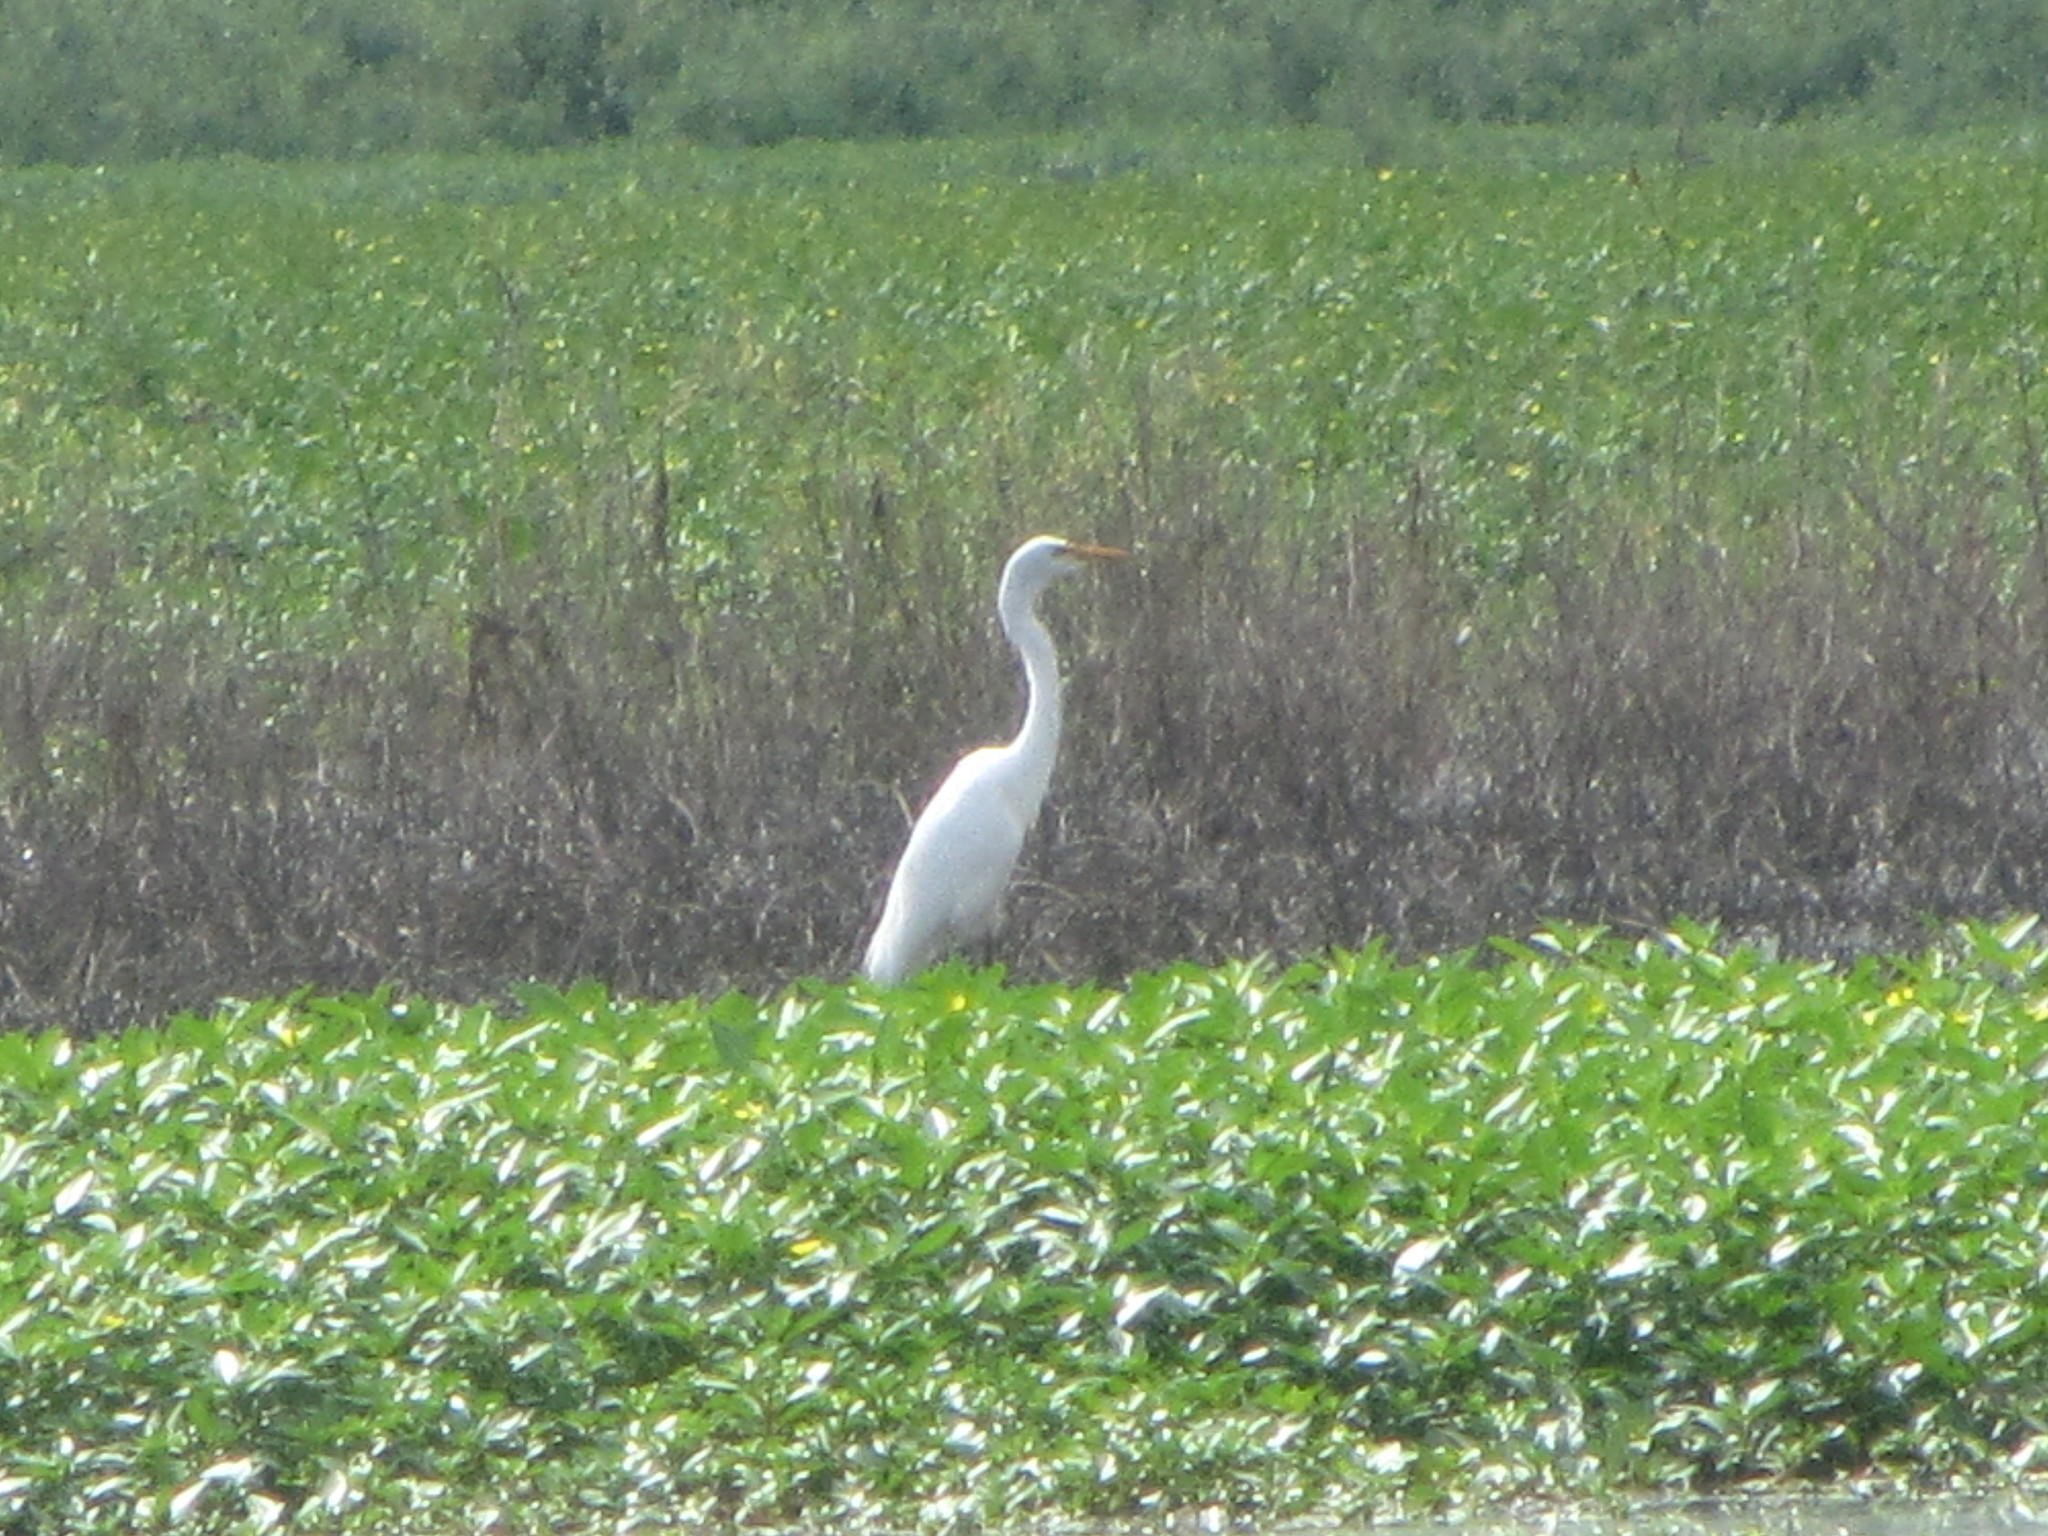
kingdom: Animalia
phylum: Chordata
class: Aves
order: Pelecaniformes
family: Ardeidae
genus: Ardea
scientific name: Ardea alba
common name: Great egret
